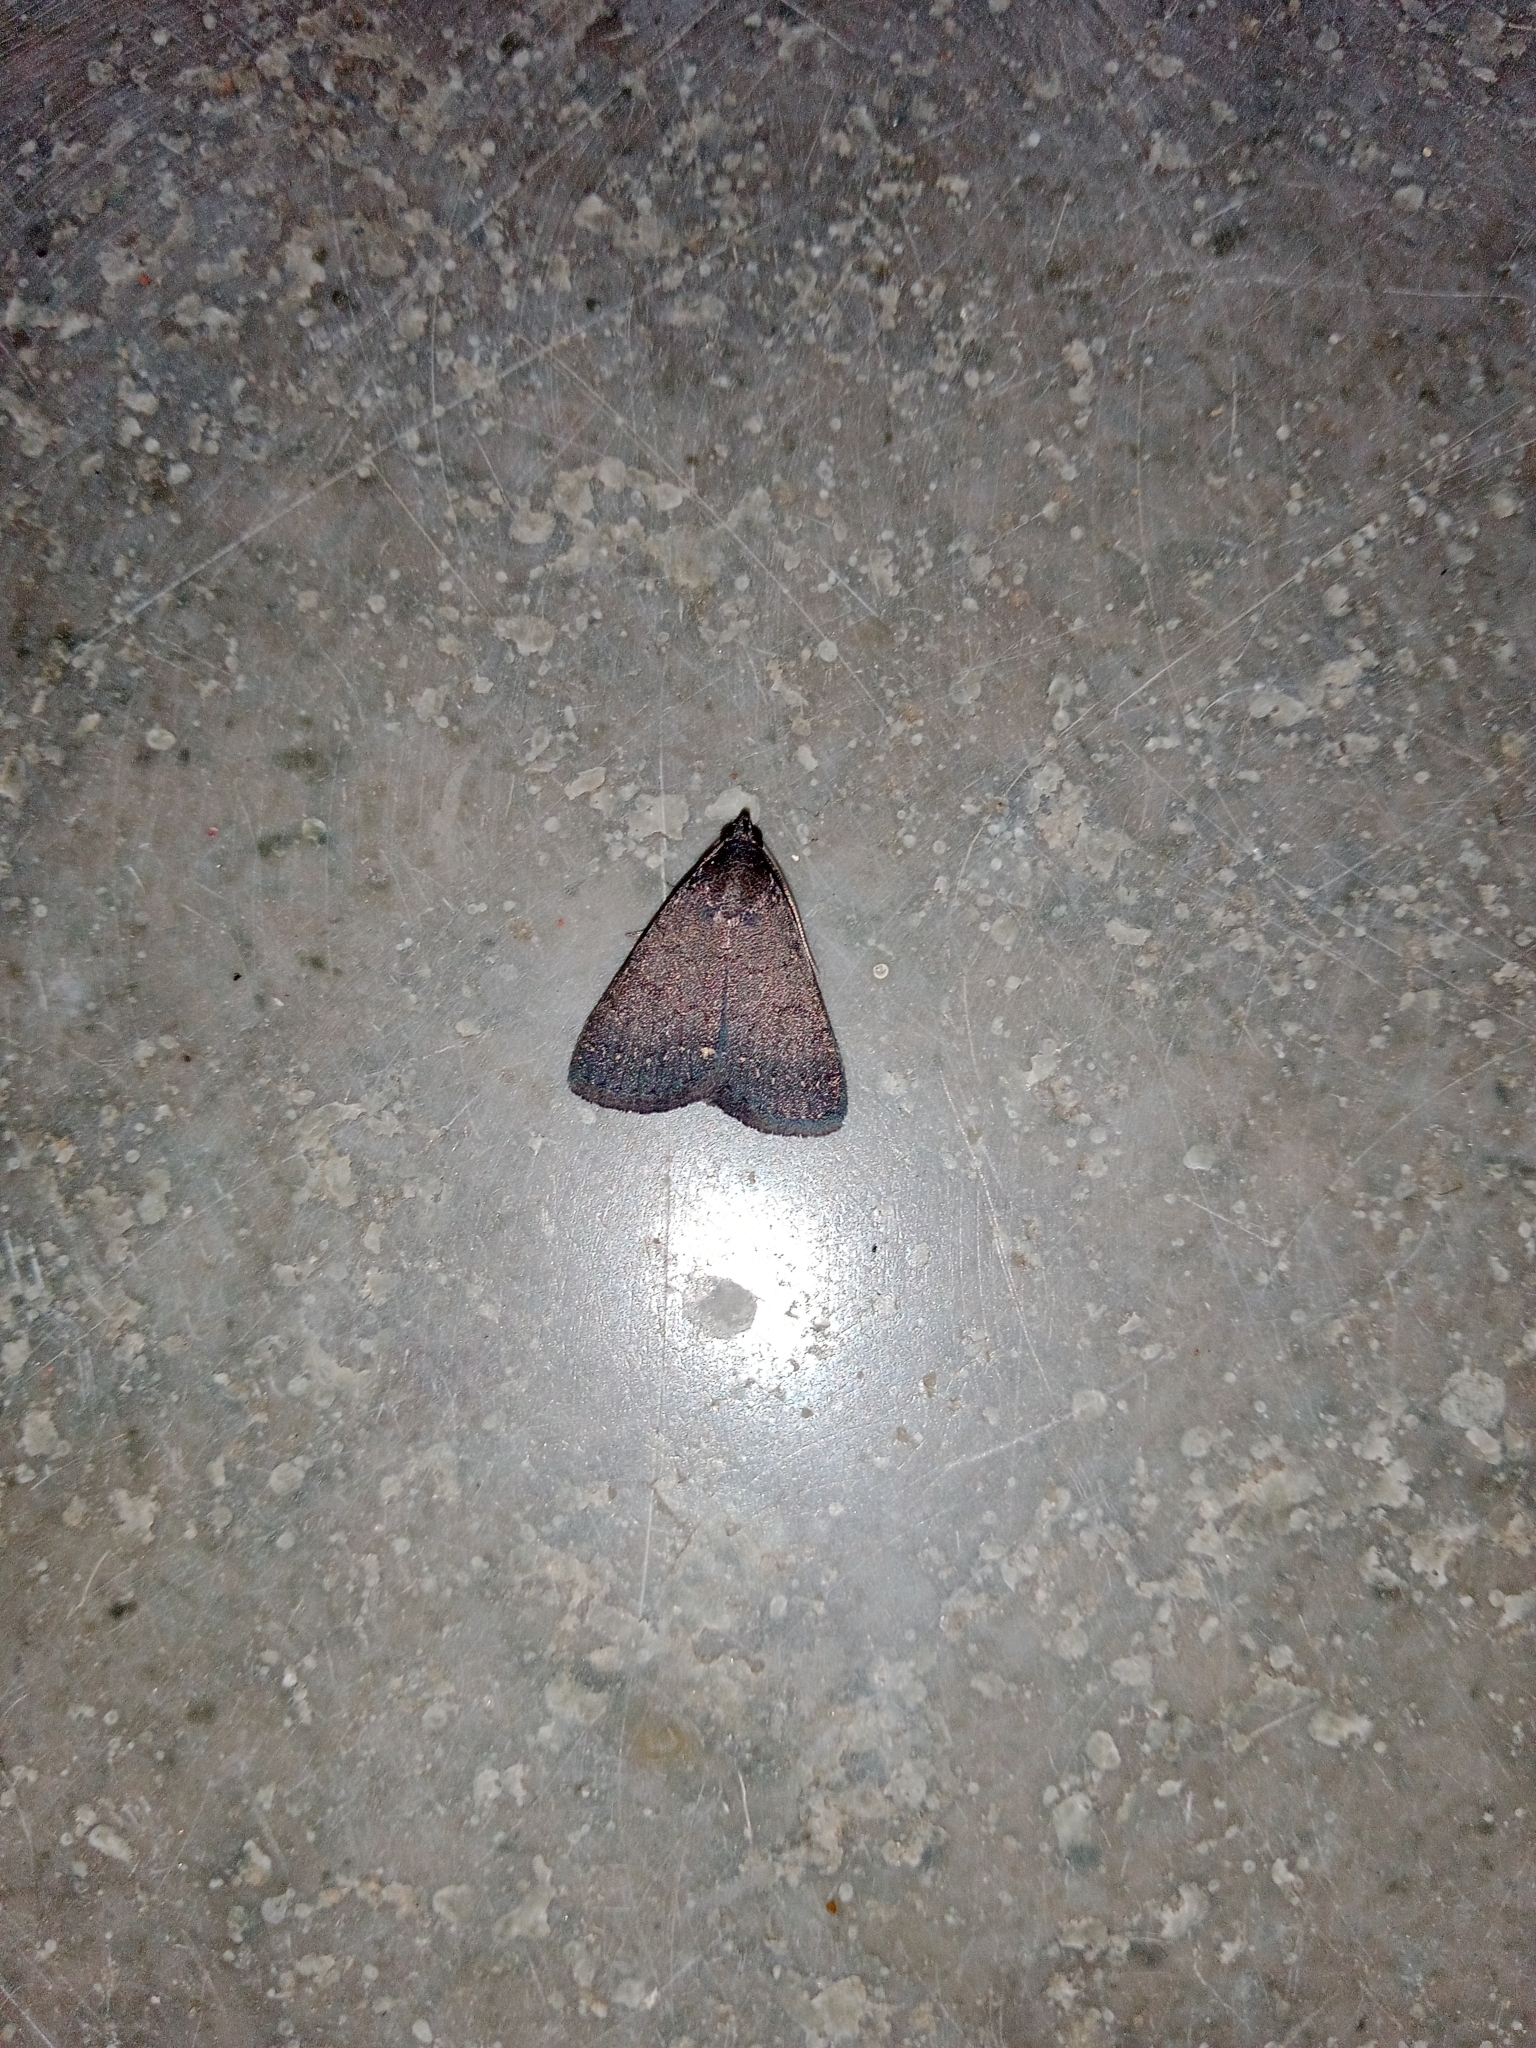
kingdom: Animalia
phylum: Arthropoda
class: Insecta
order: Lepidoptera
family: Erebidae
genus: Nodaria
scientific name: Nodaria externalis
